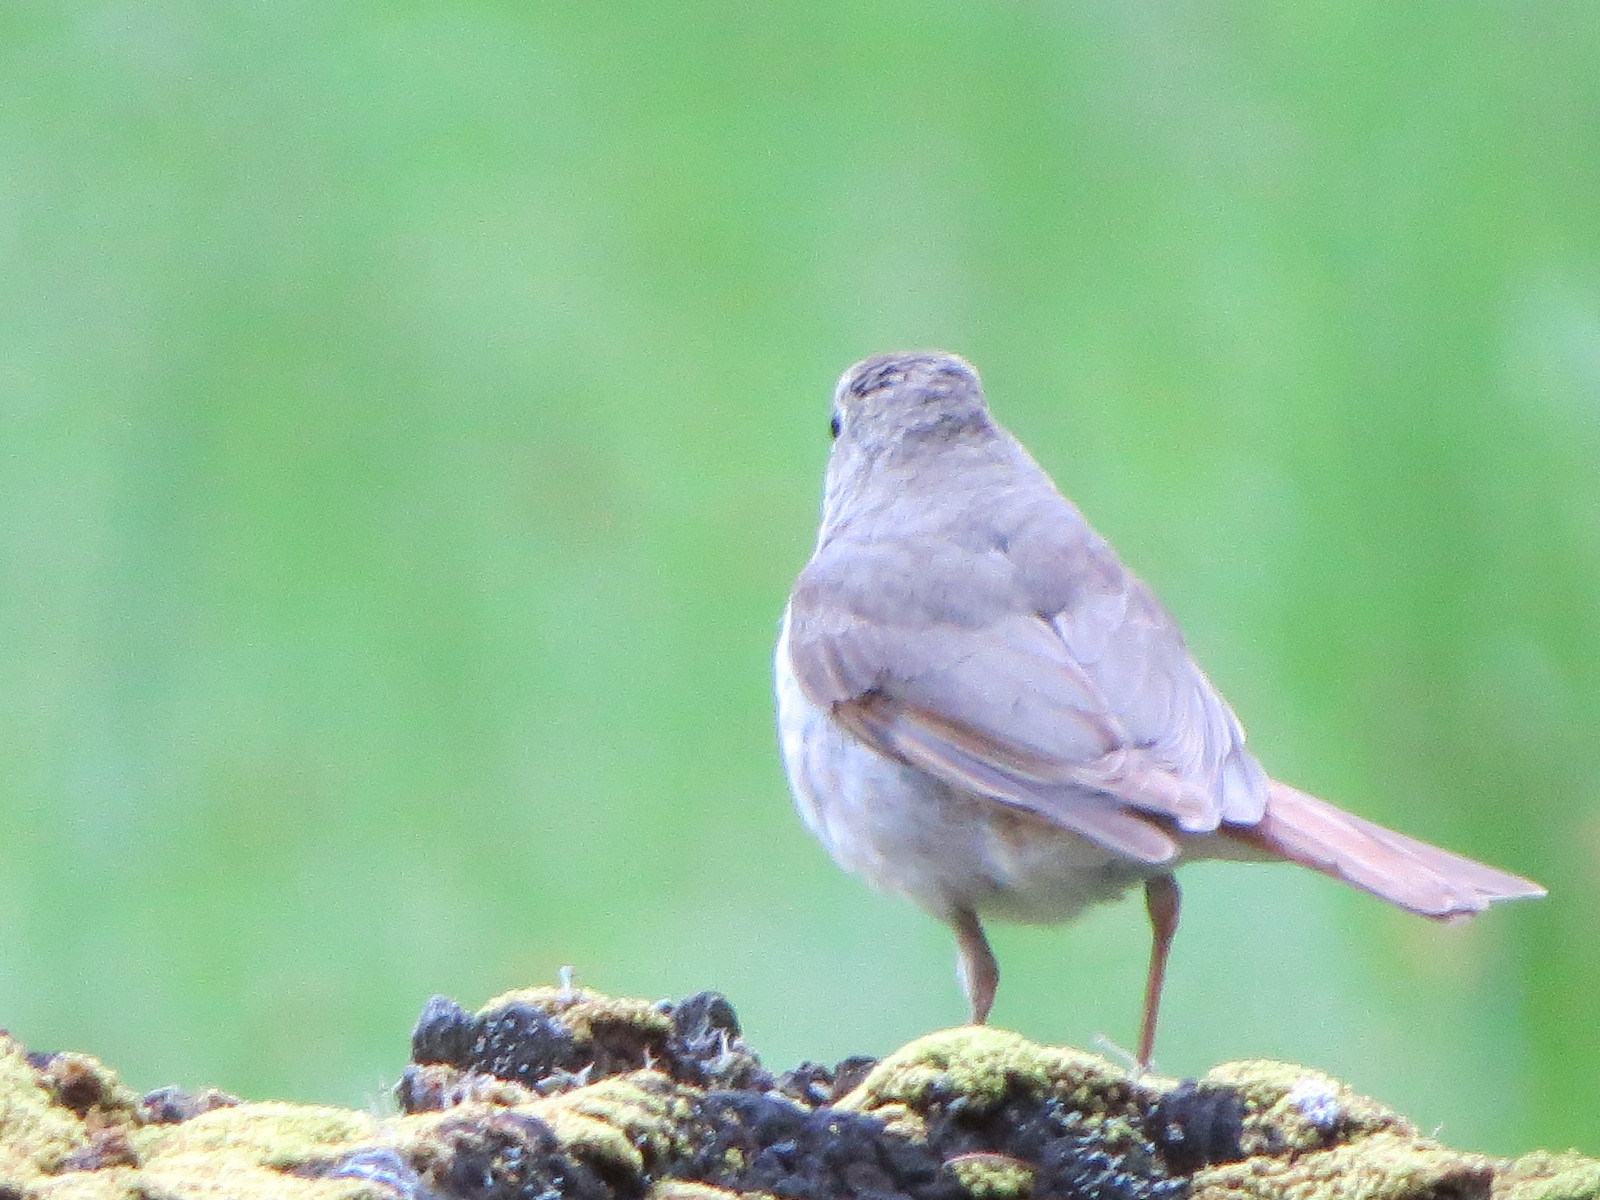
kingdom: Animalia
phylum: Chordata
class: Aves
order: Passeriformes
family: Turdidae
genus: Catharus
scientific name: Catharus guttatus
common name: Hermit thrush
